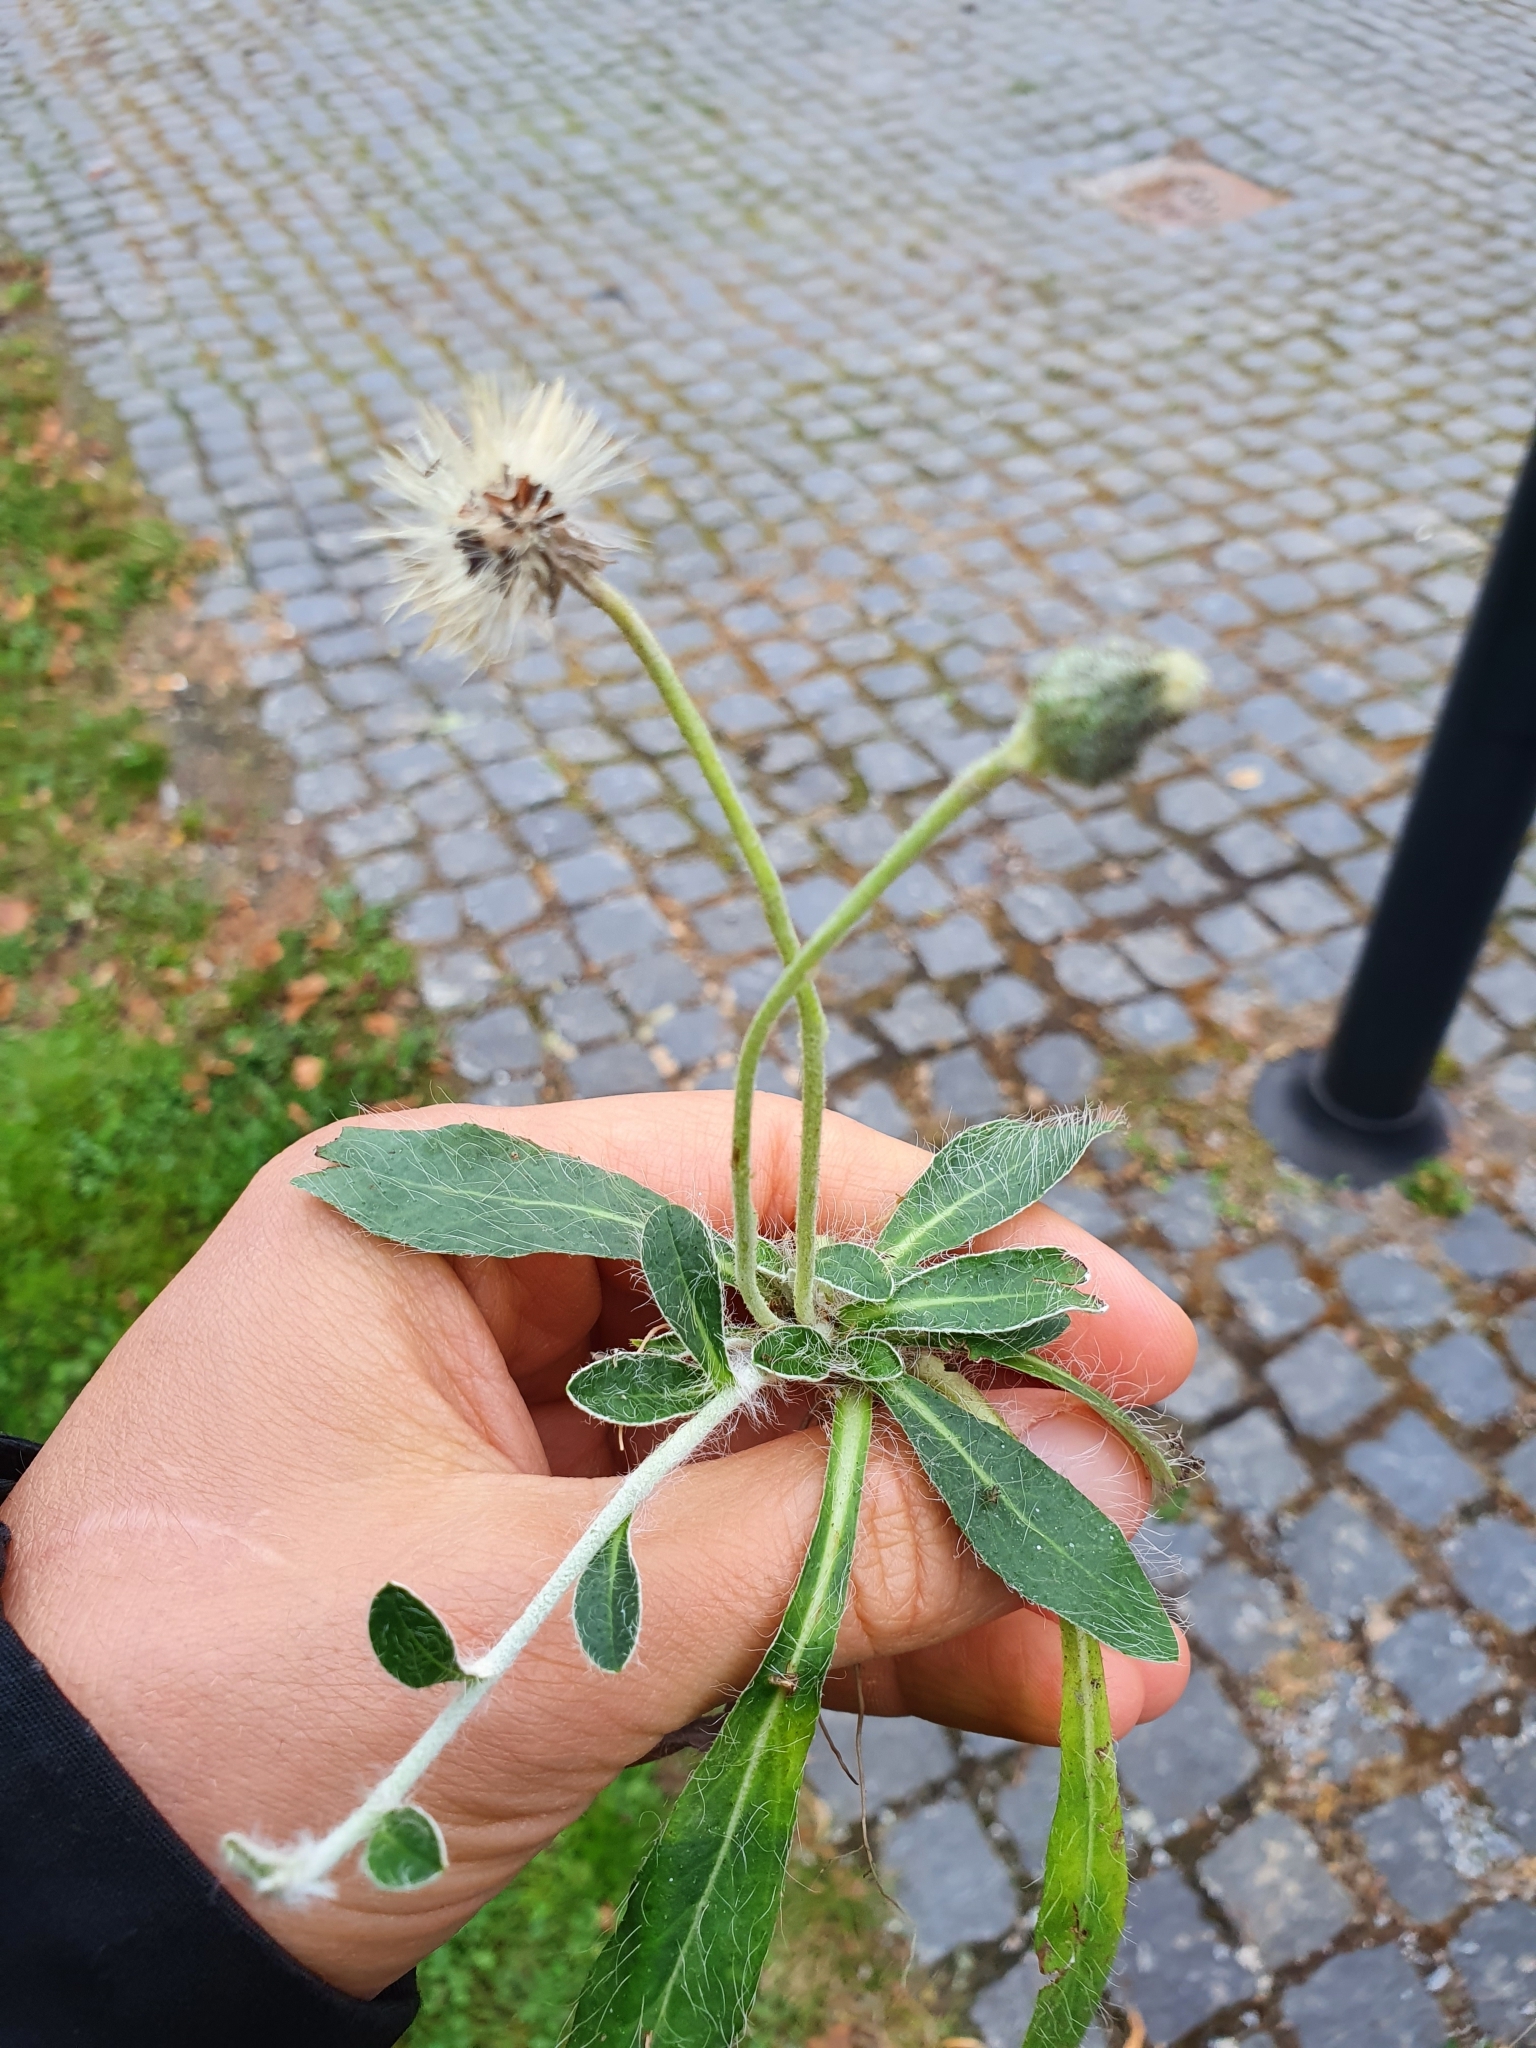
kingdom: Plantae
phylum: Tracheophyta
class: Magnoliopsida
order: Asterales
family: Asteraceae
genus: Pilosella
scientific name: Pilosella officinarum
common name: Mouse-ear hawkweed
